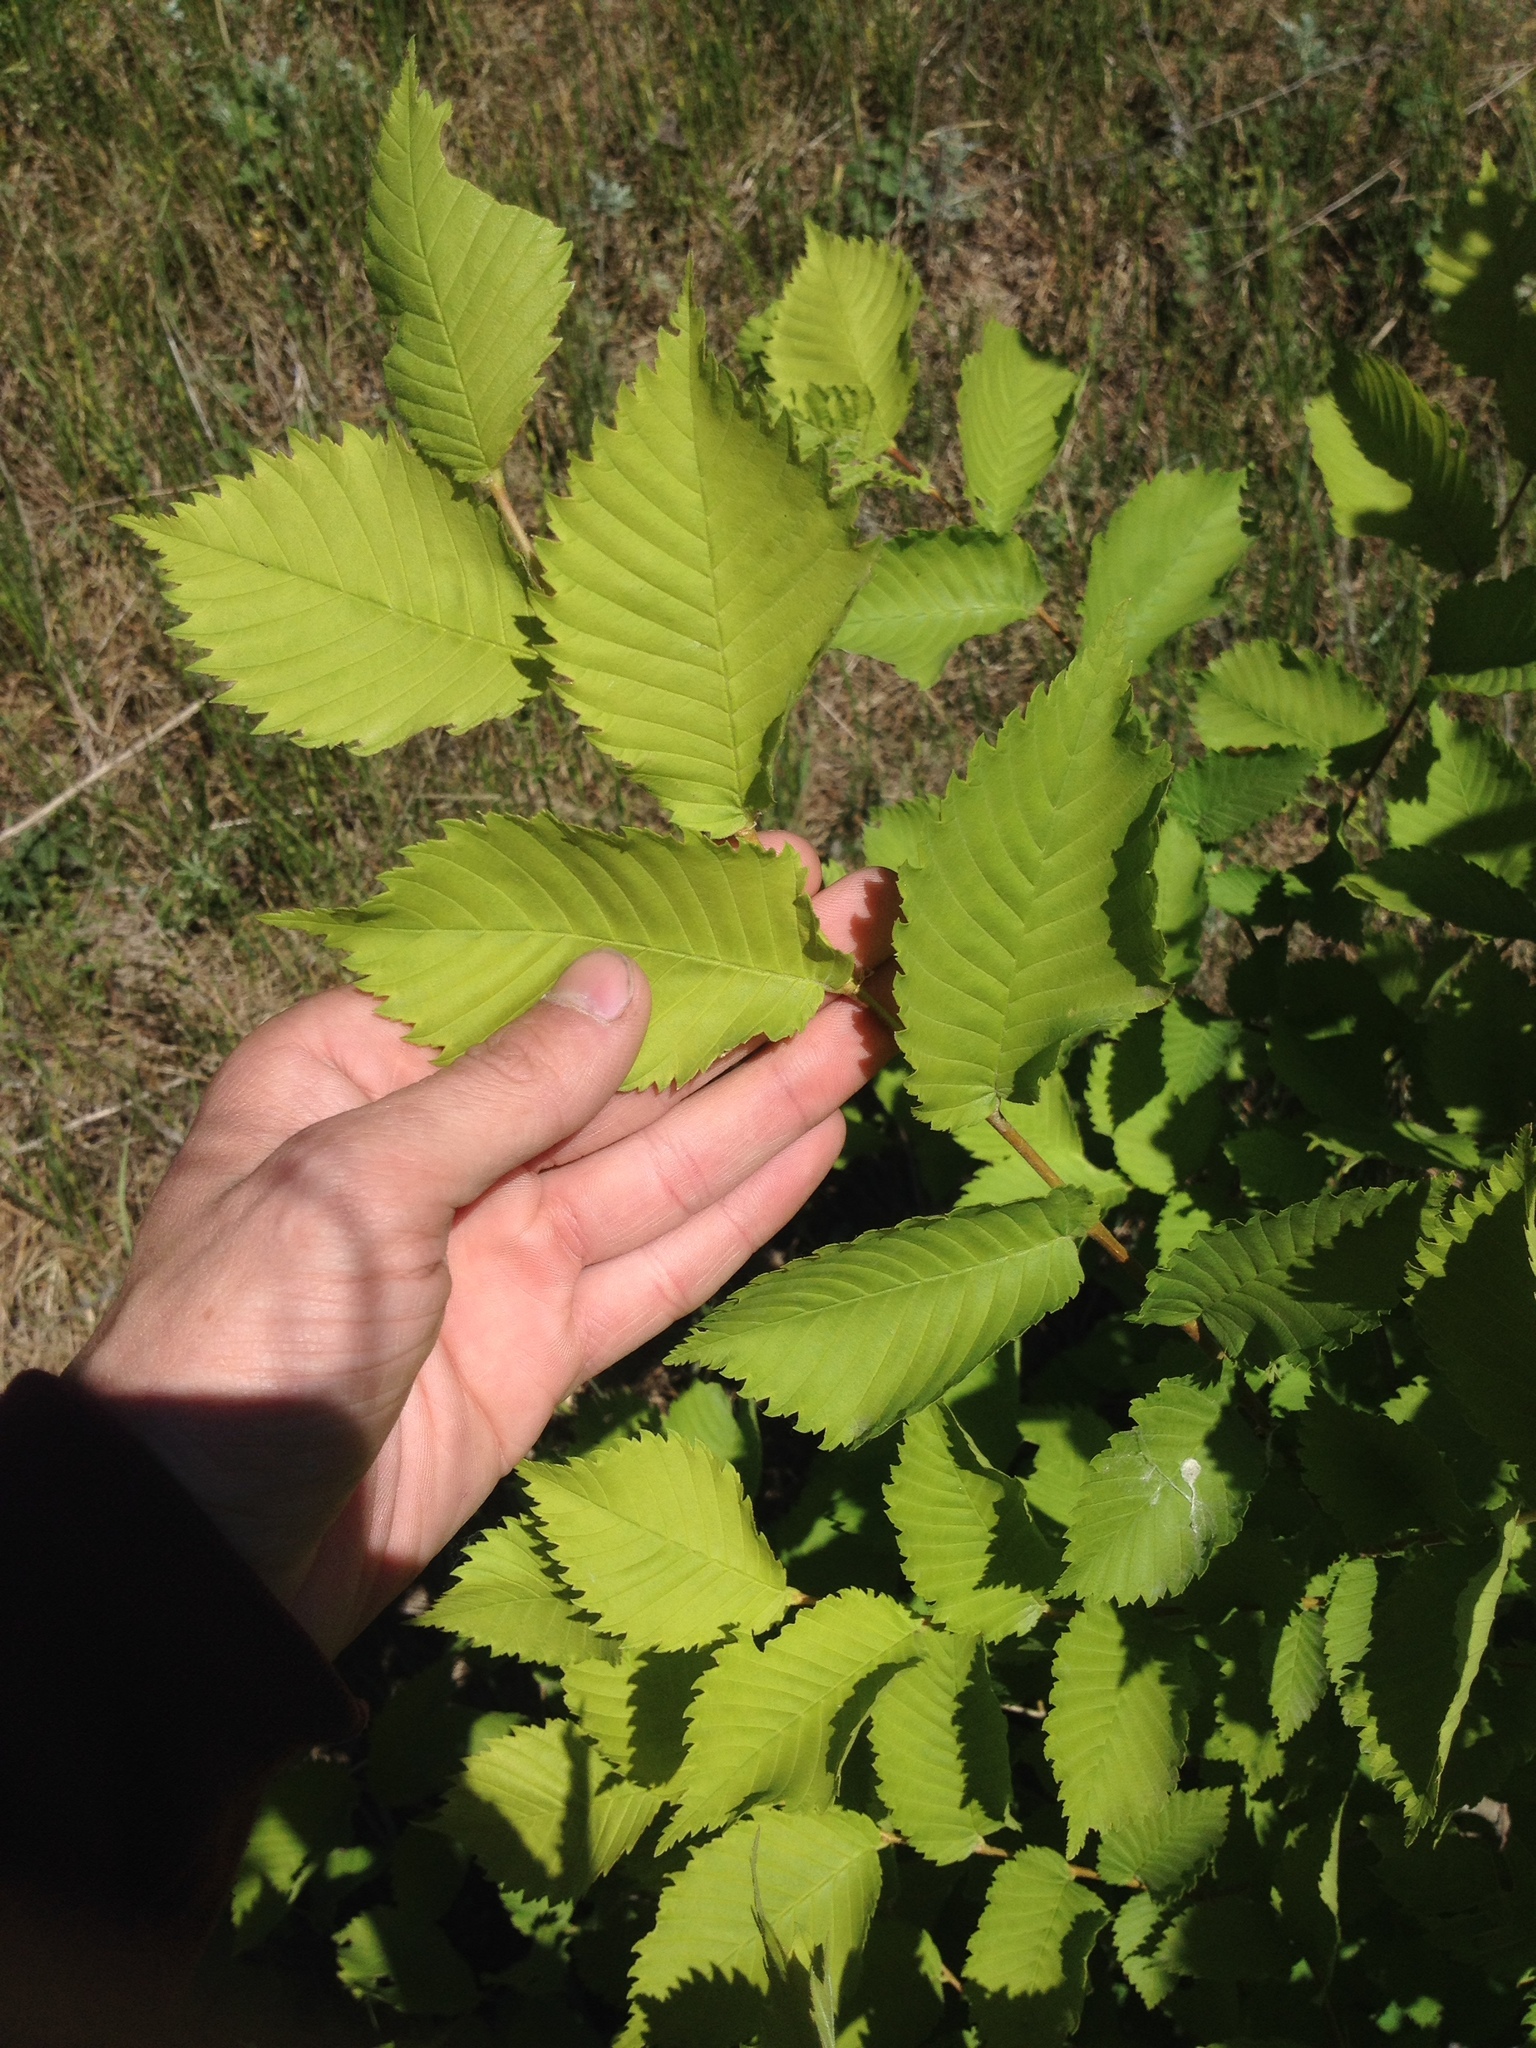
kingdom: Plantae
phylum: Tracheophyta
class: Magnoliopsida
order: Rosales
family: Ulmaceae
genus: Ulmus
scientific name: Ulmus laevis
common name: European white-elm
